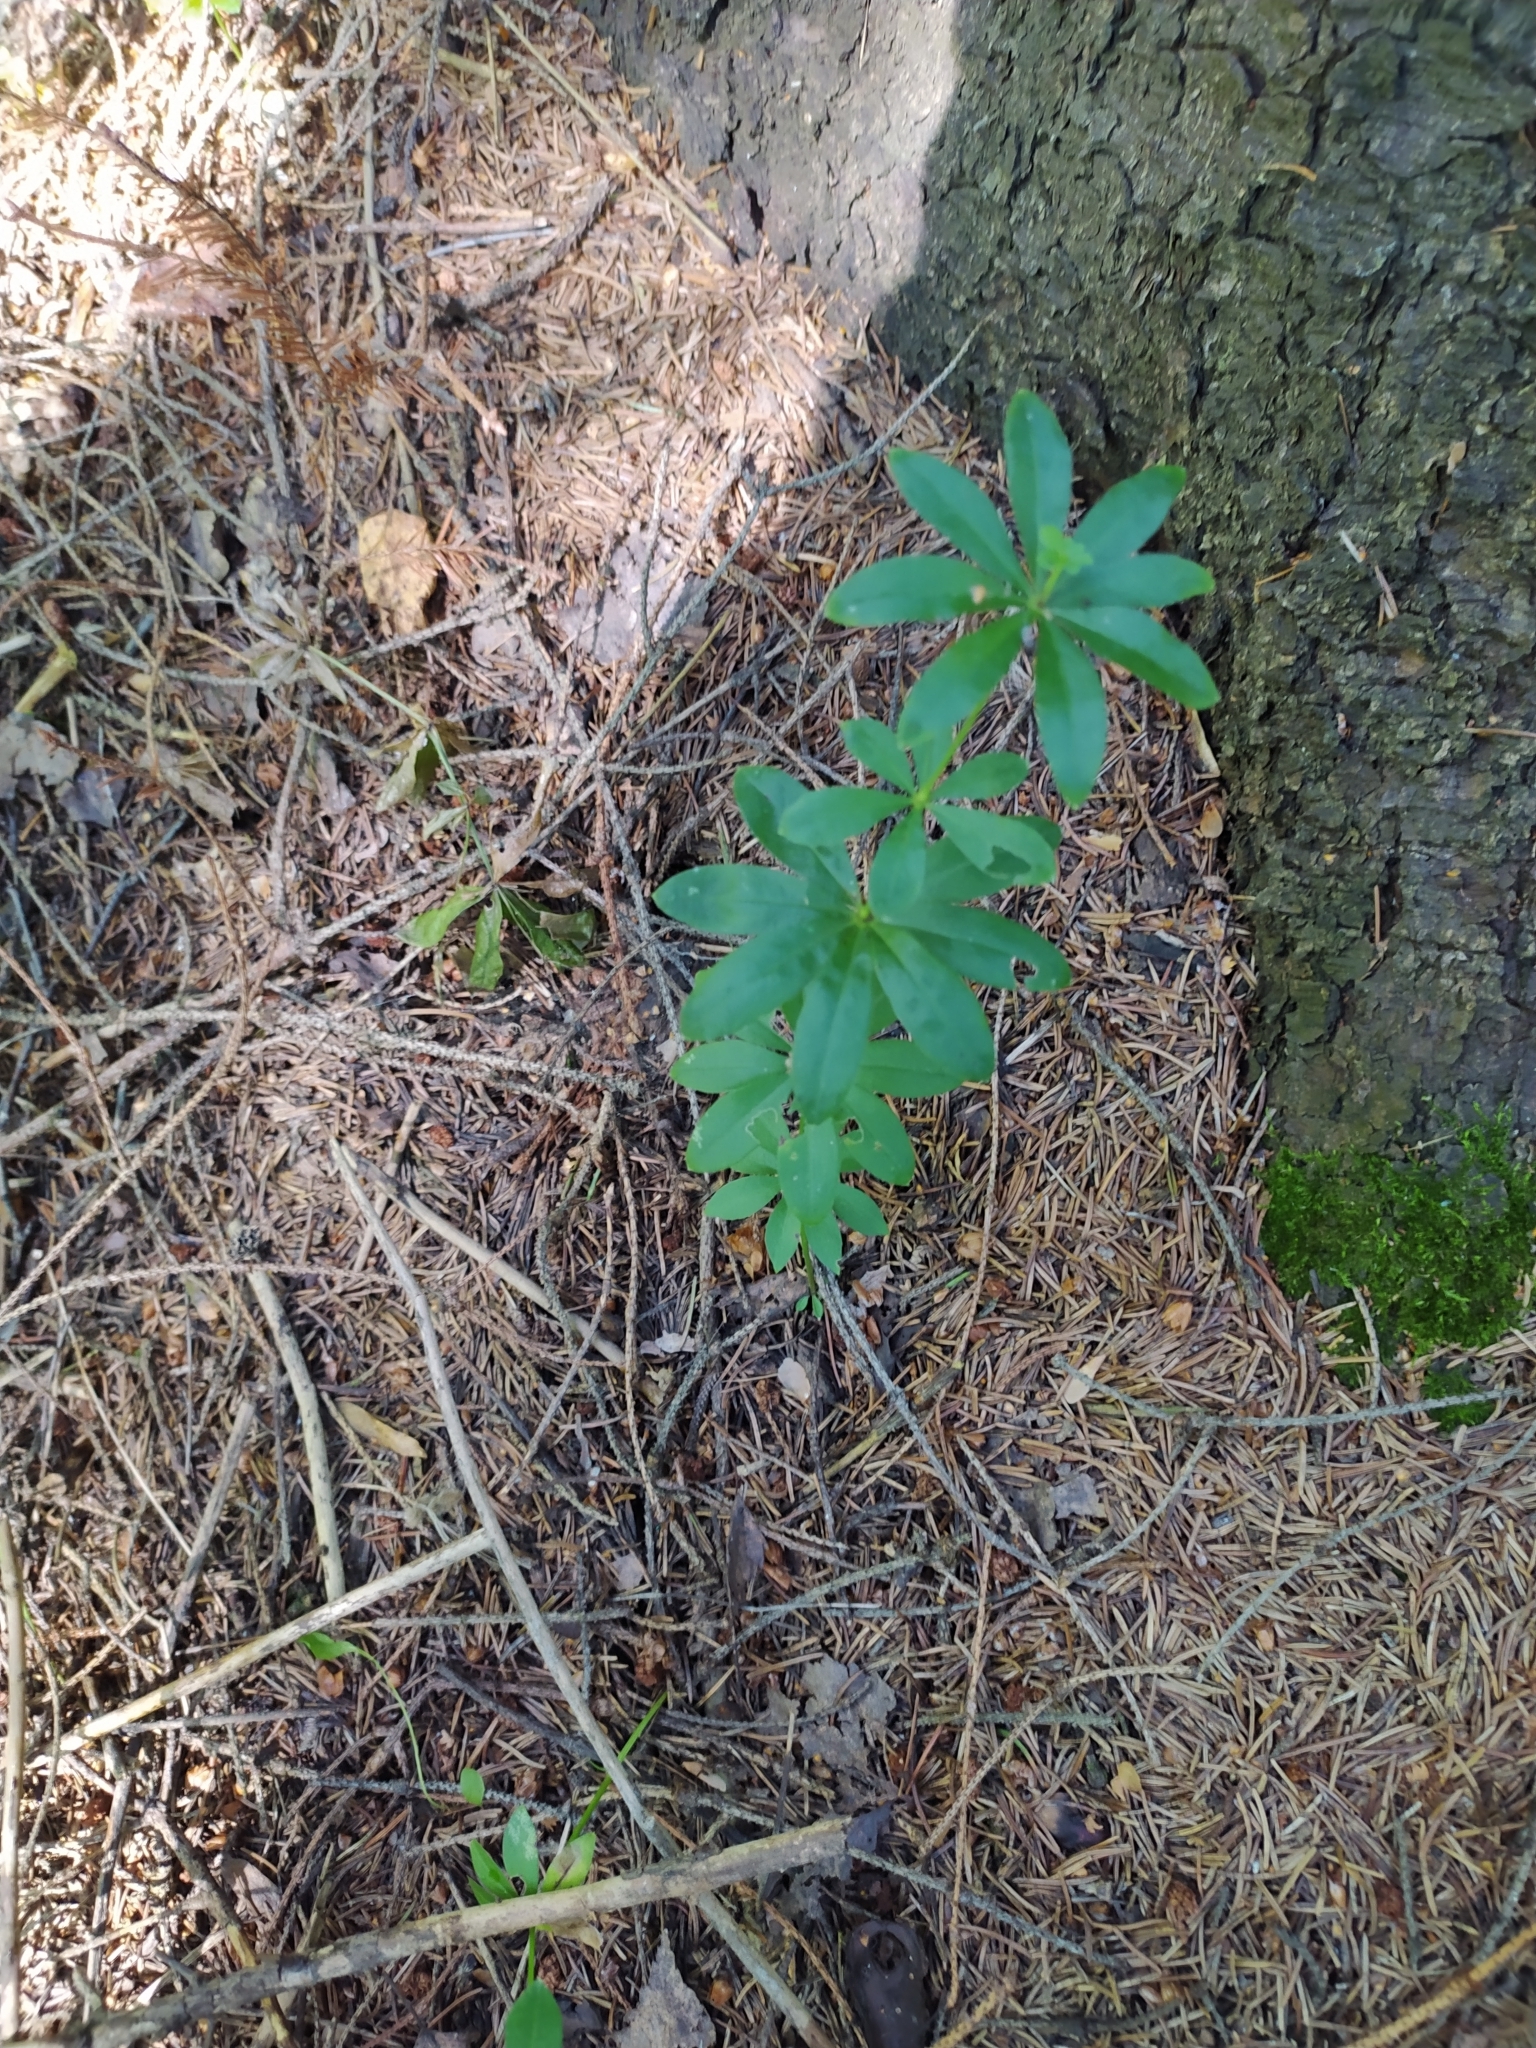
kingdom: Plantae
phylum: Tracheophyta
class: Magnoliopsida
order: Gentianales
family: Rubiaceae
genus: Galium
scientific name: Galium odoratum
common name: Sweet woodruff
